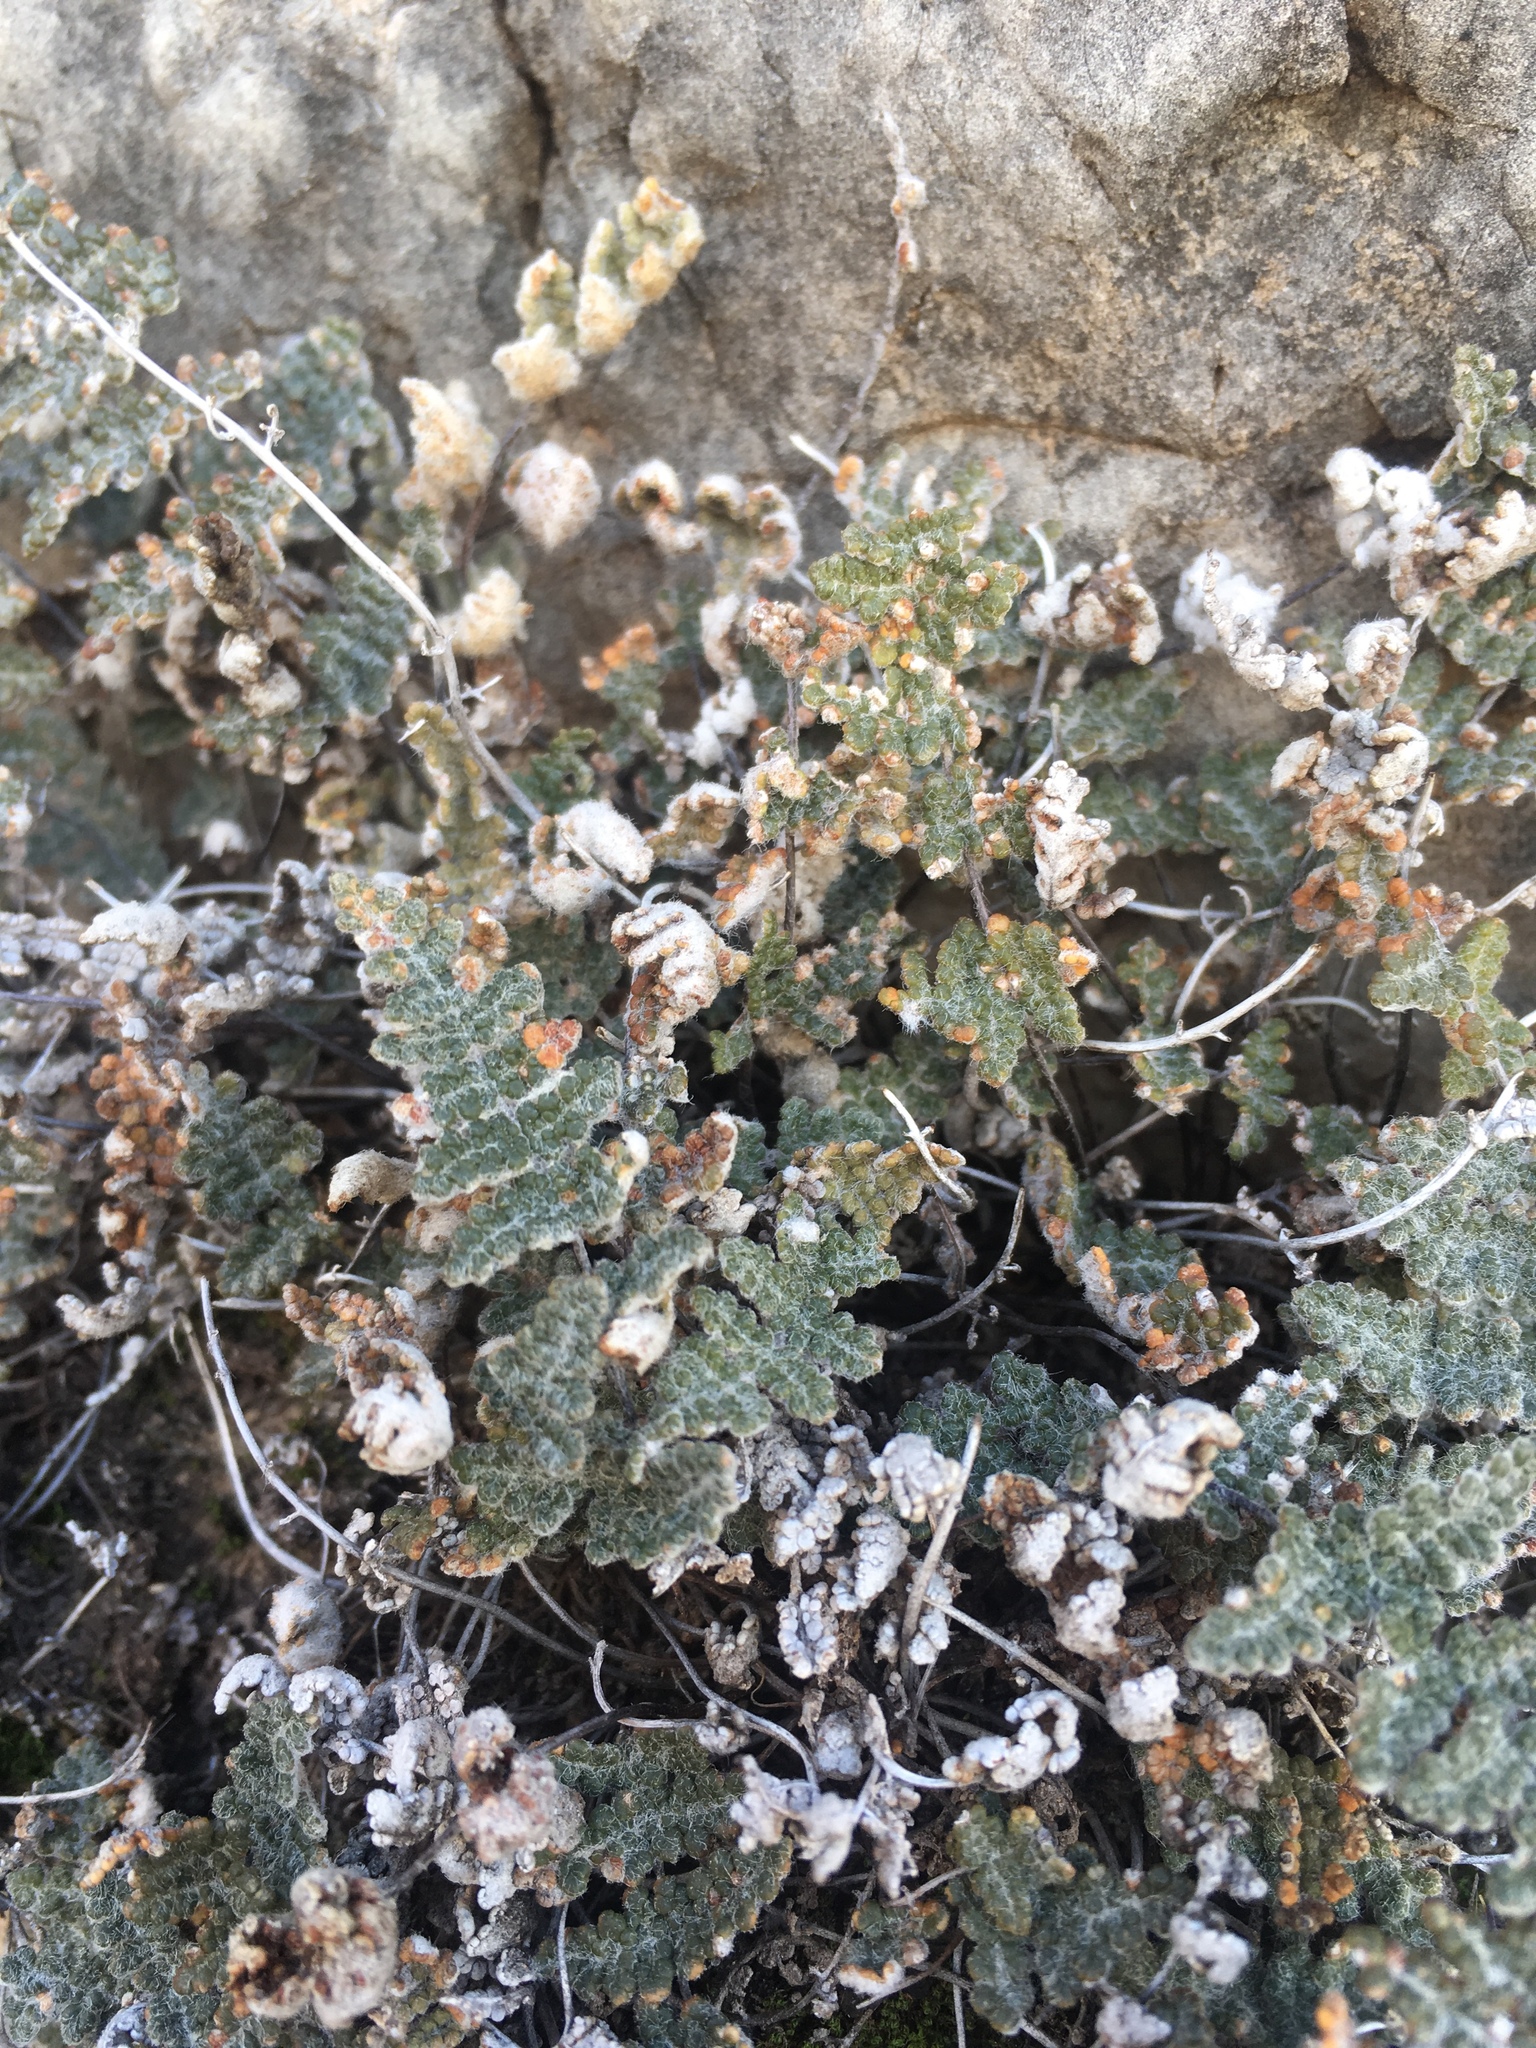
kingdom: Plantae
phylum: Tracheophyta
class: Polypodiopsida
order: Polypodiales
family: Pteridaceae
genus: Myriopteris
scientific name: Myriopteris gracilis
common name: Fee's lip fern
